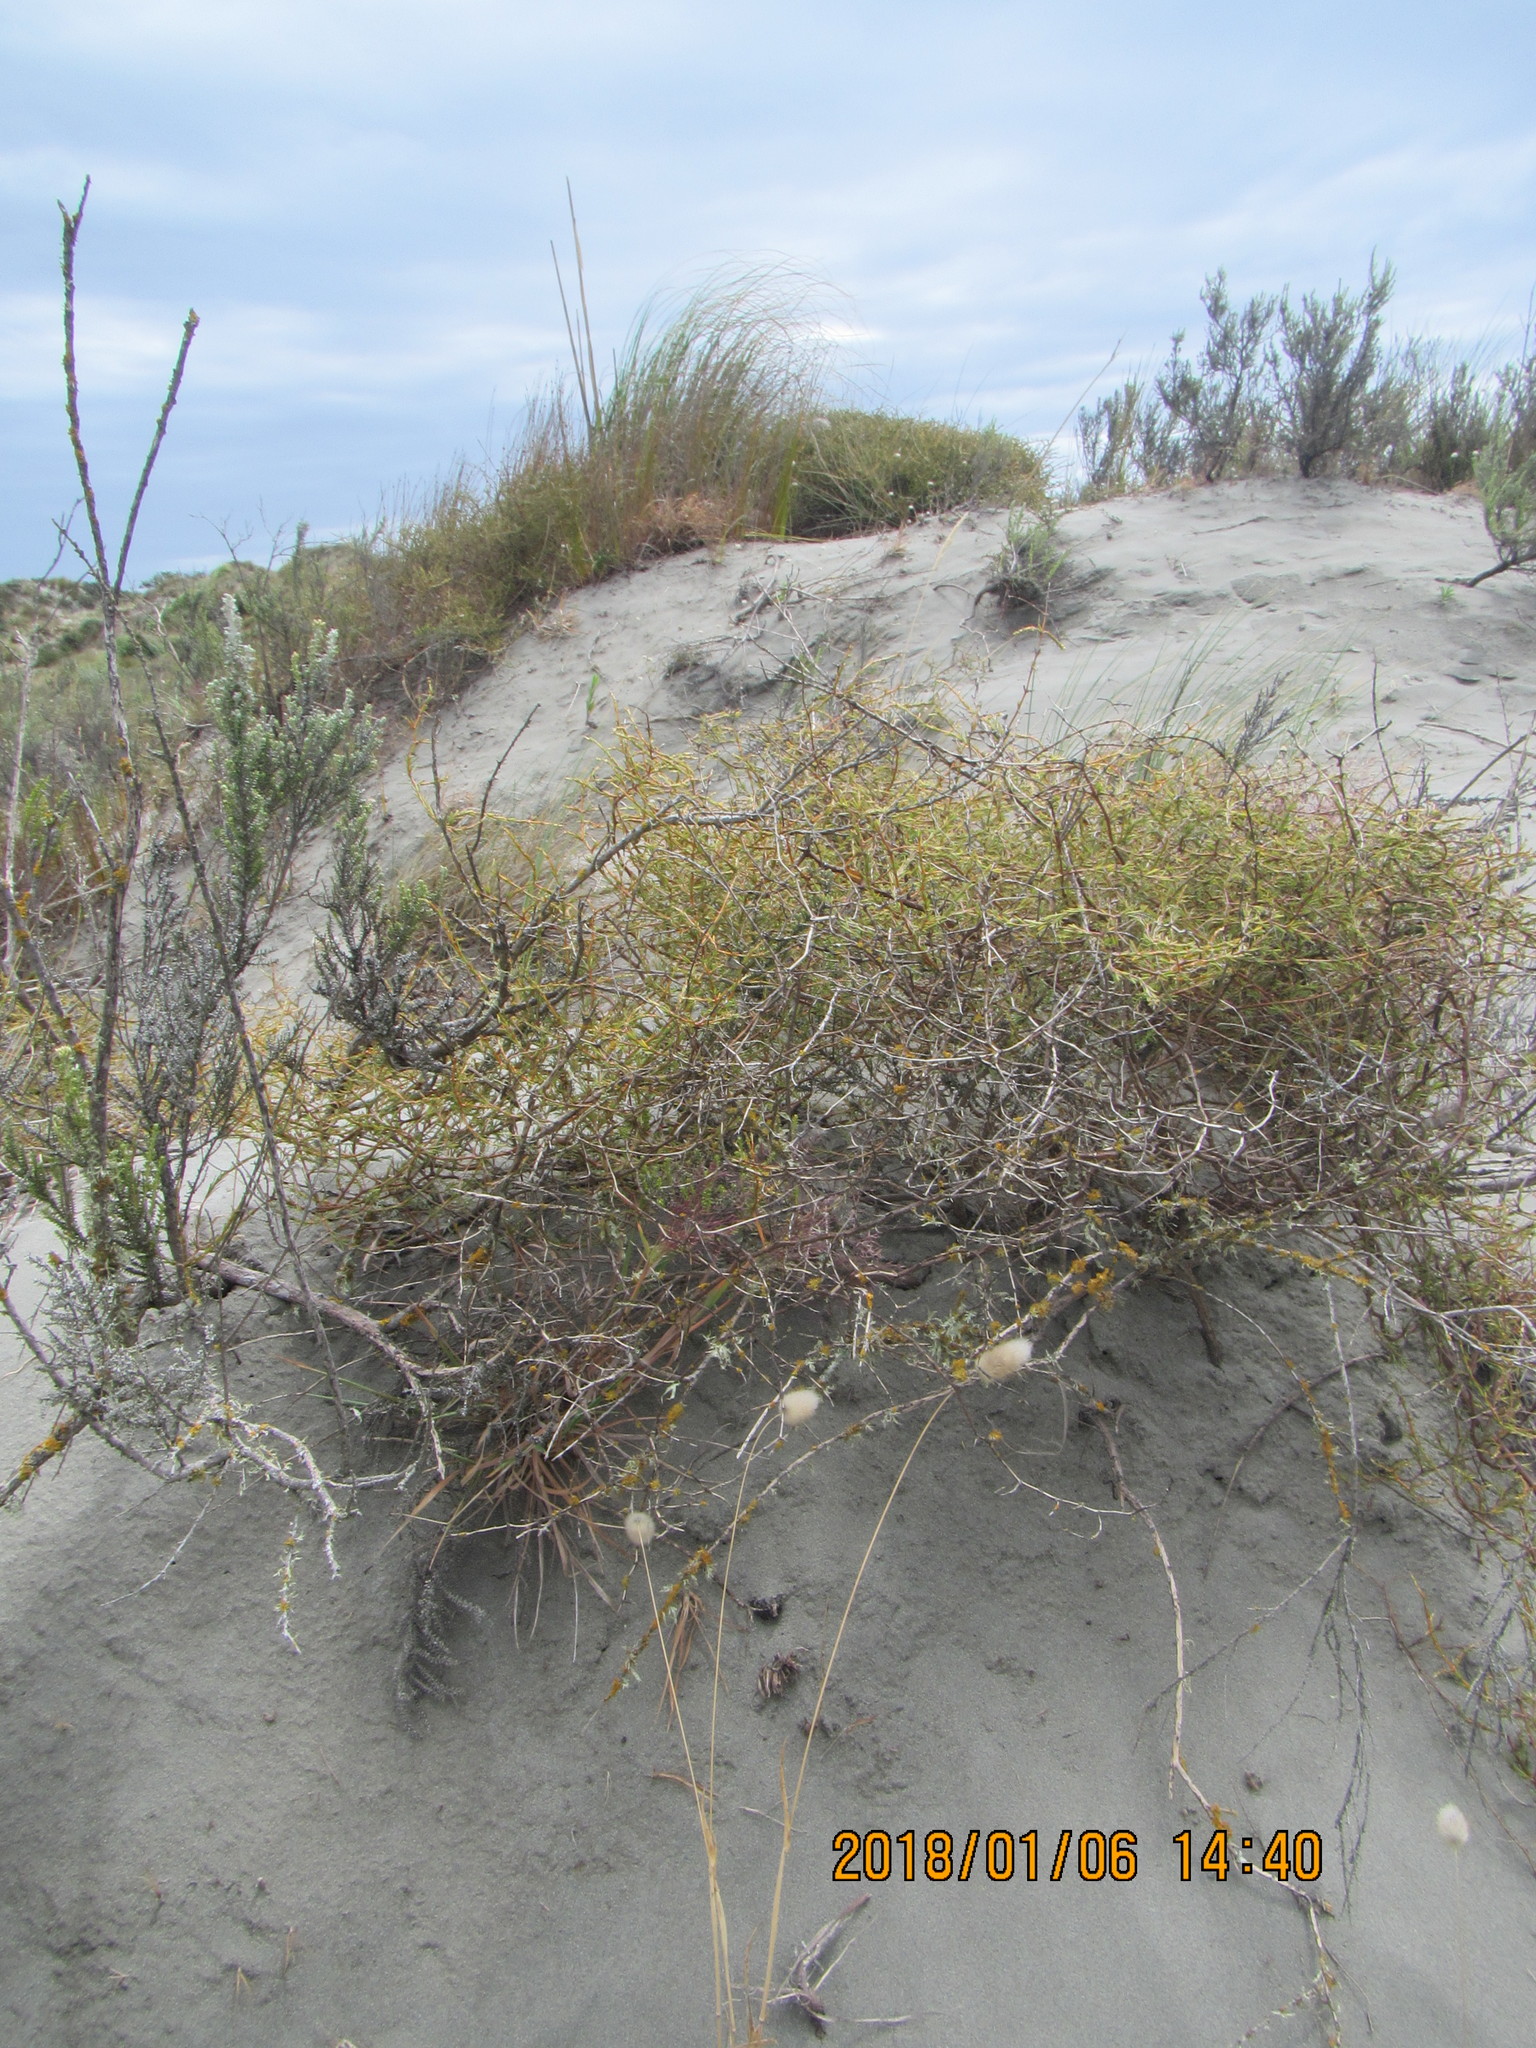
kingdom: Plantae
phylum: Tracheophyta
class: Magnoliopsida
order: Gentianales
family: Rubiaceae
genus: Coprosma
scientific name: Coprosma acerosa
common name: Sand coprosma
